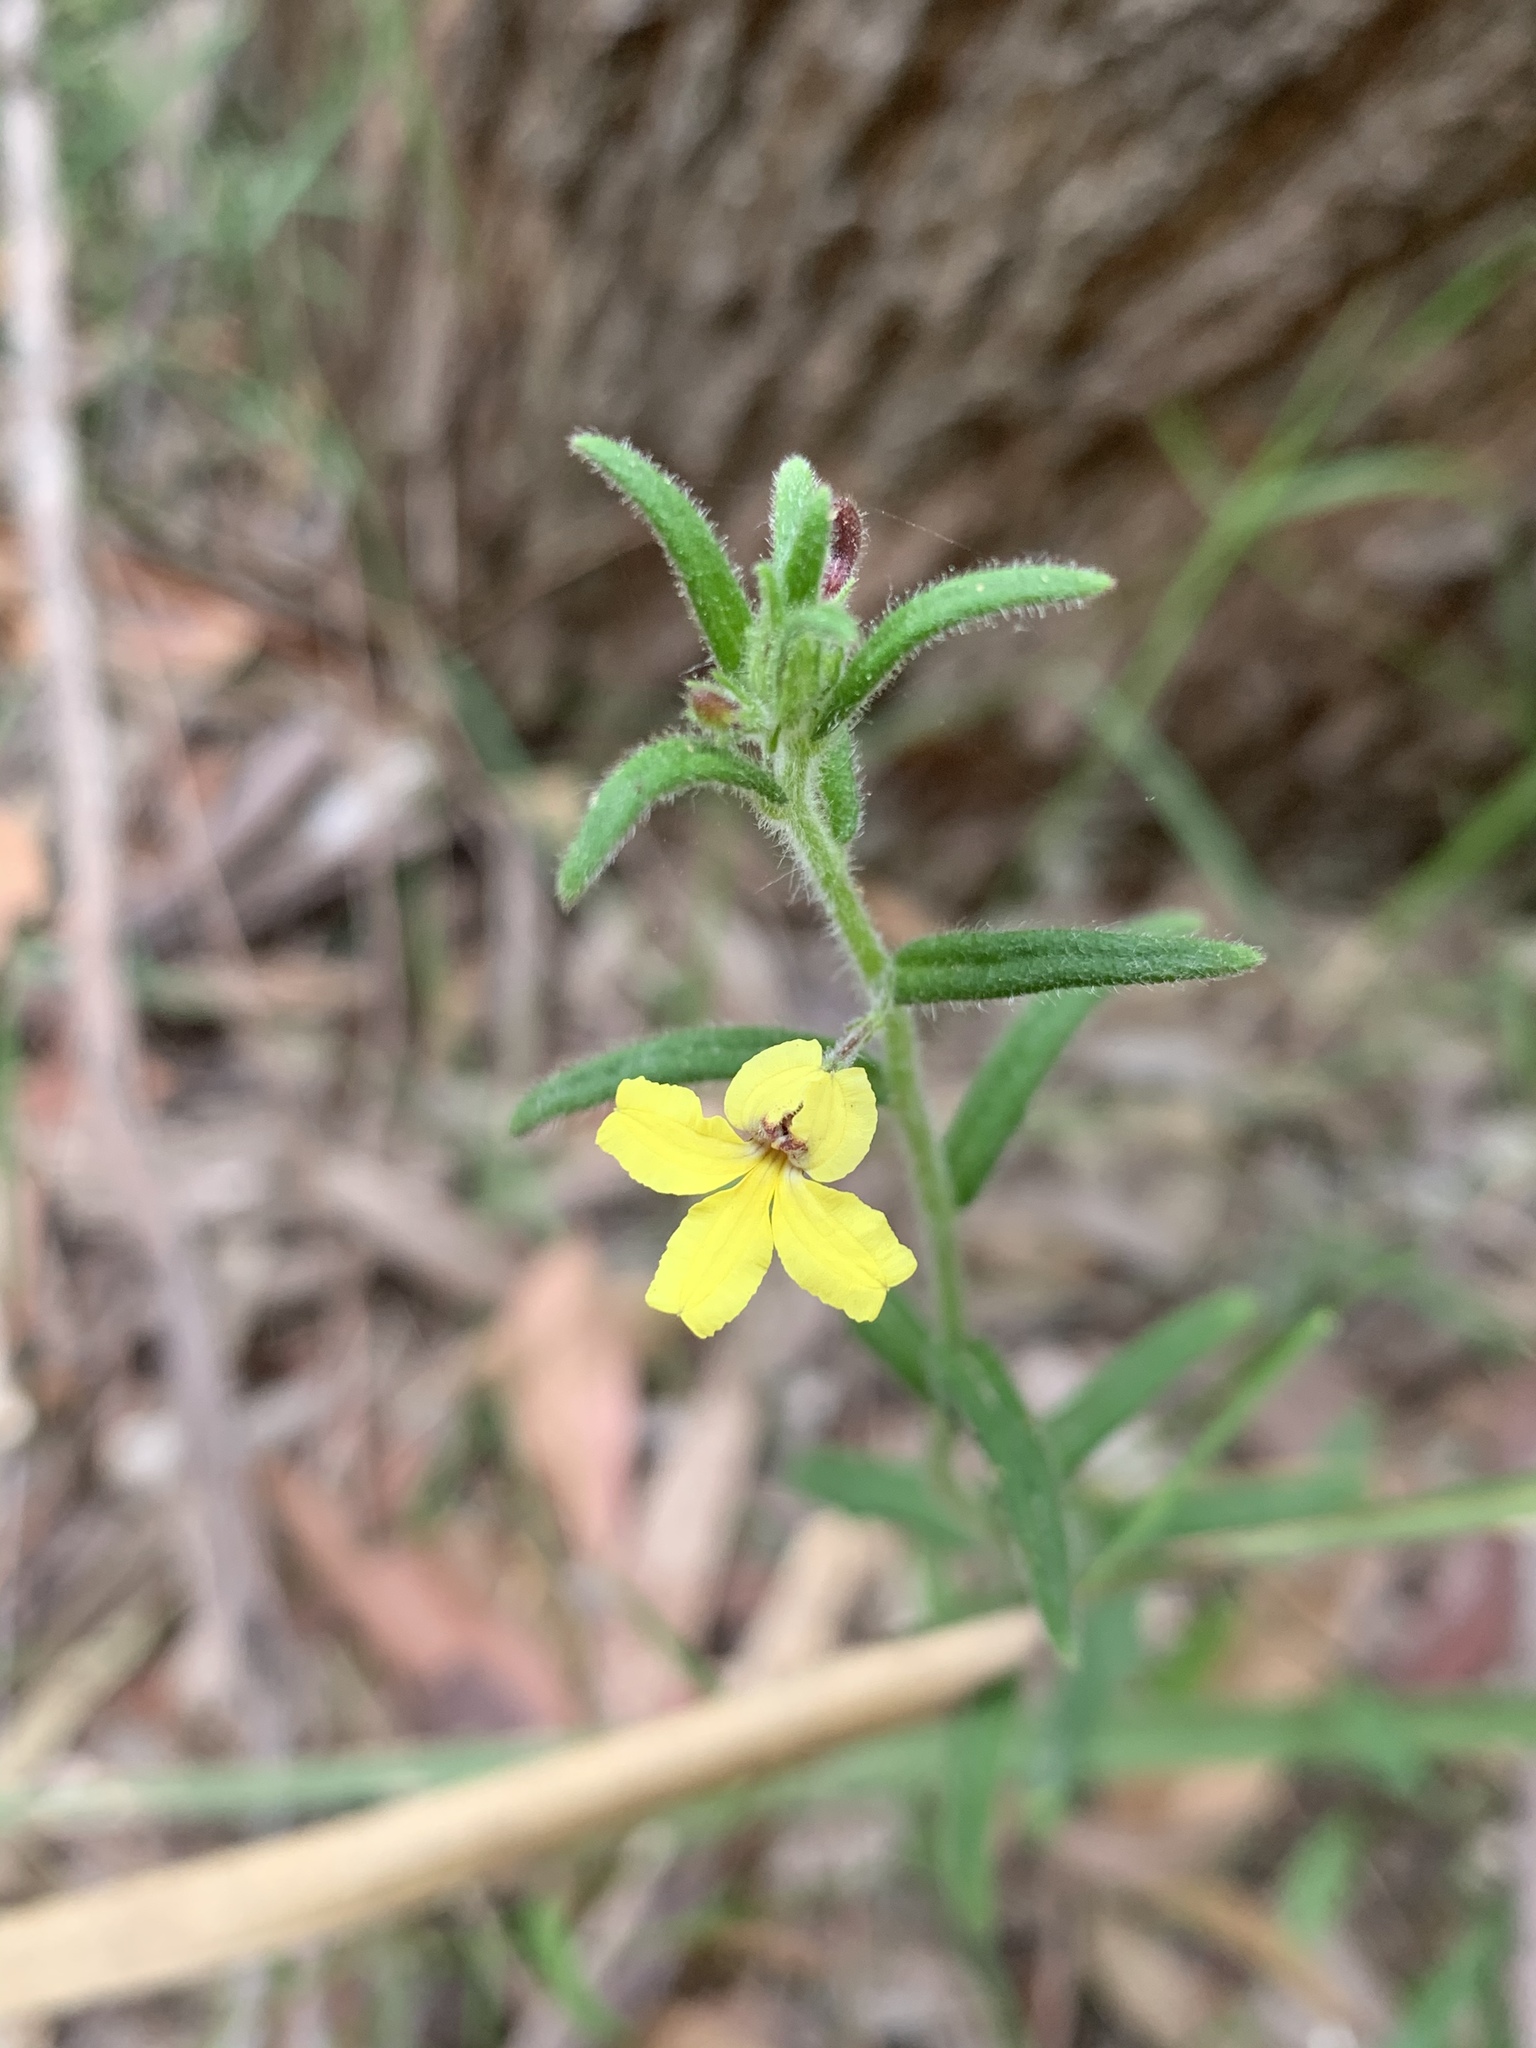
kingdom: Plantae
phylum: Tracheophyta
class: Magnoliopsida
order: Asterales
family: Goodeniaceae
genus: Goodenia
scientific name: Goodenia heterophylla
